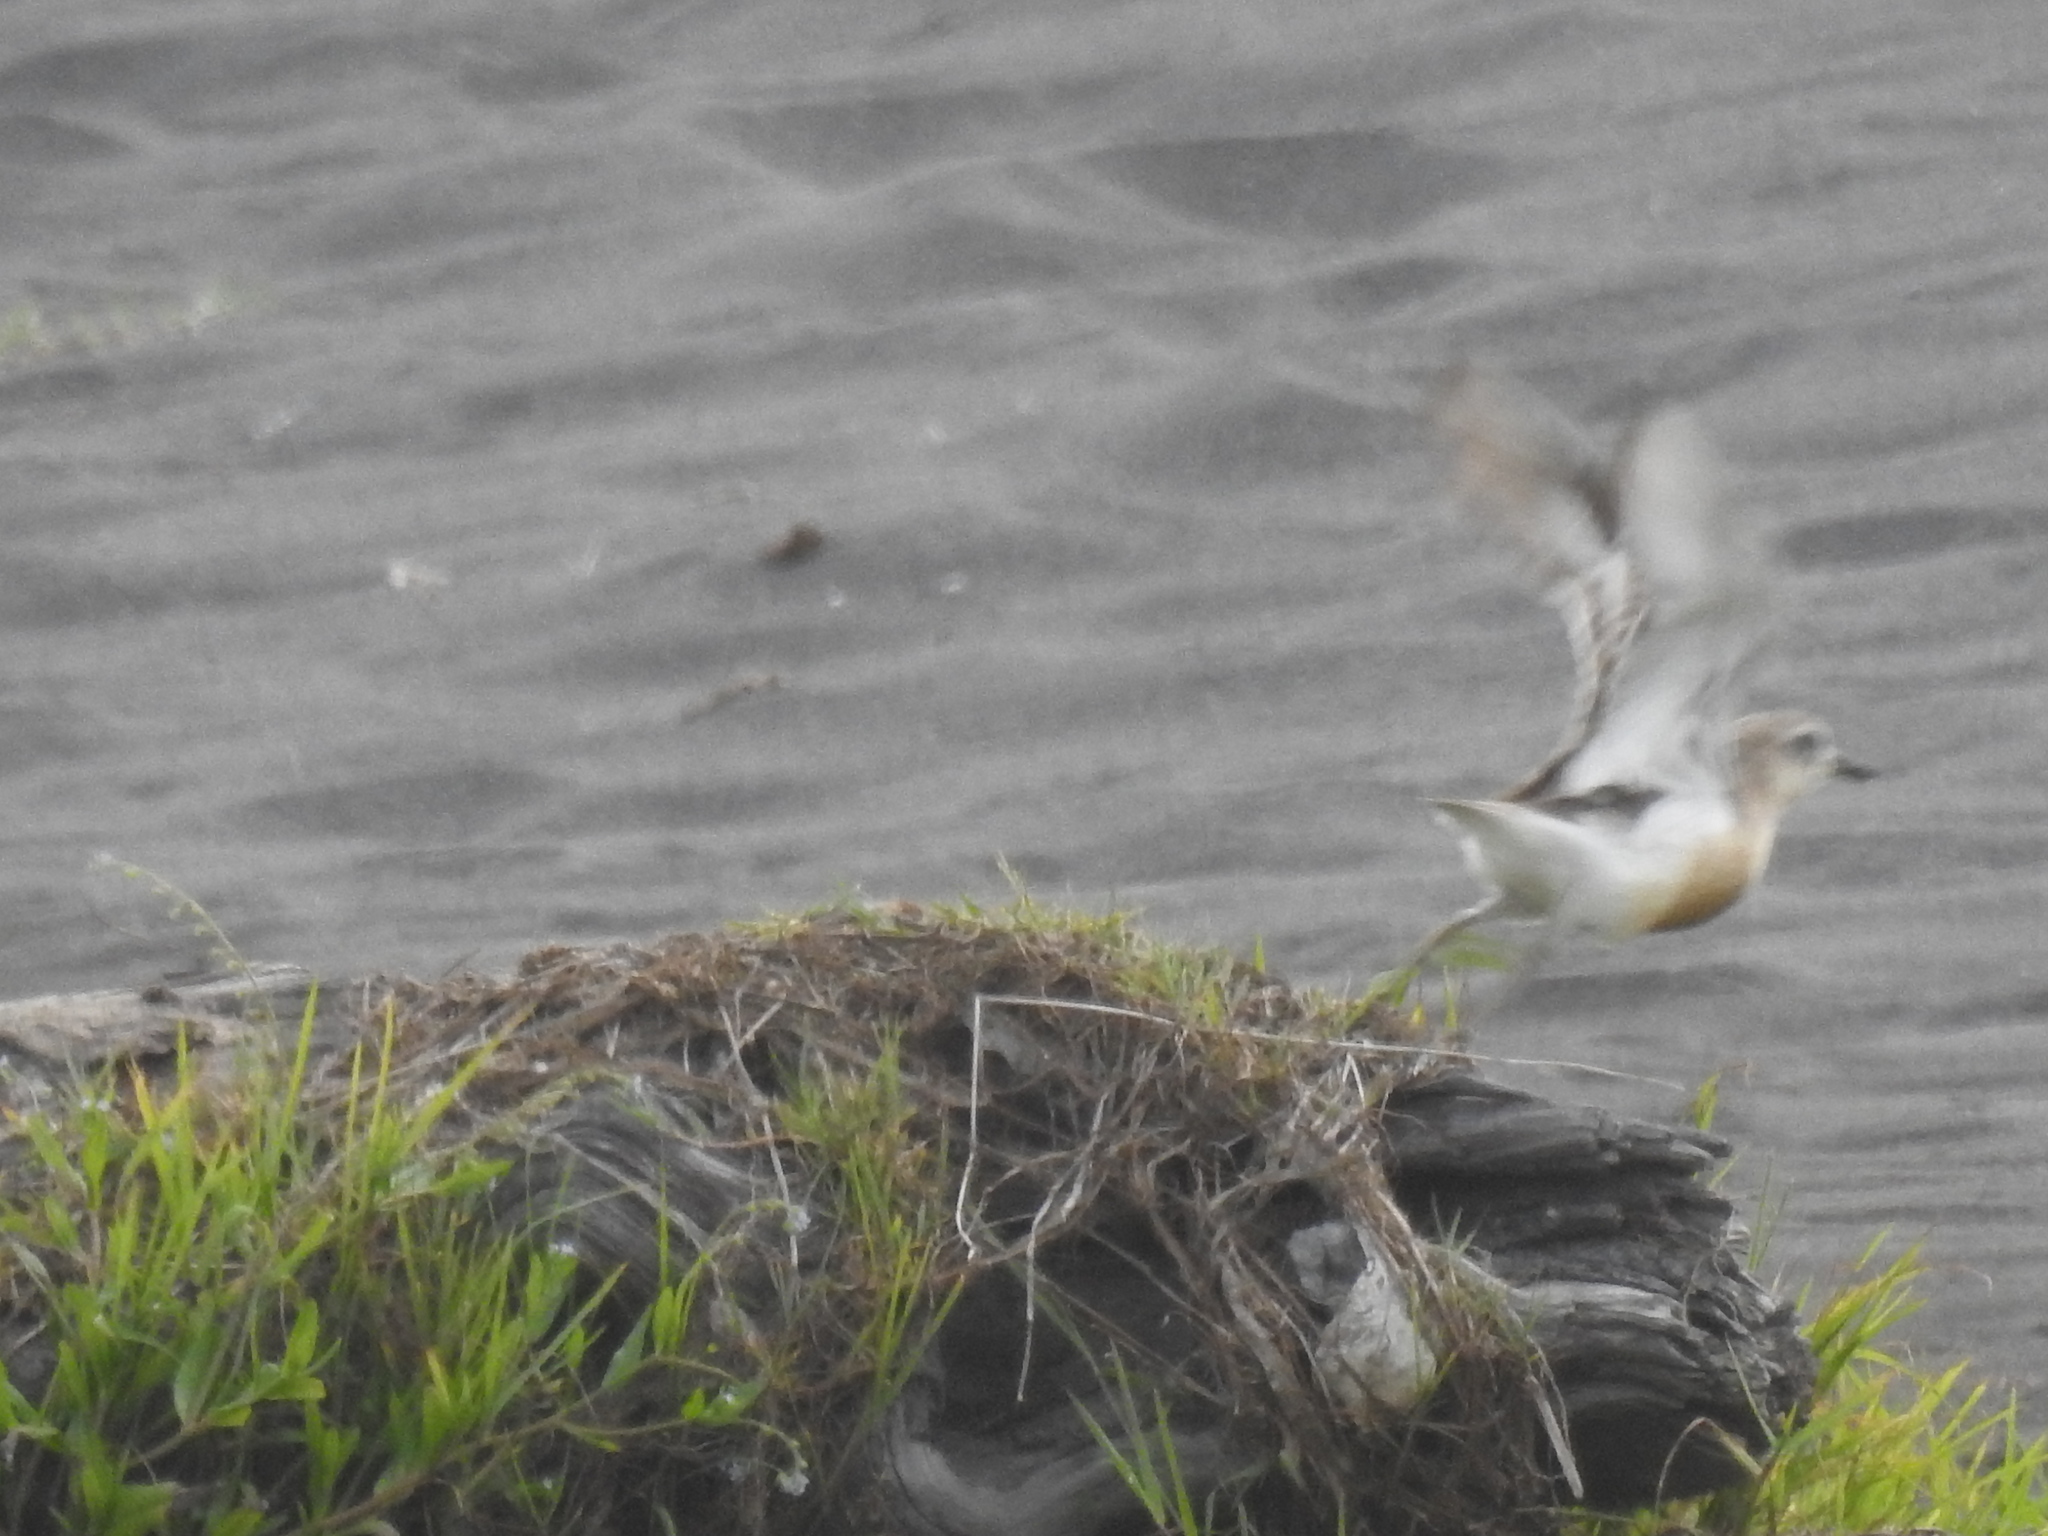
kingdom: Animalia
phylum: Chordata
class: Aves
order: Charadriiformes
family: Charadriidae
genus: Anarhynchus
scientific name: Anarhynchus
